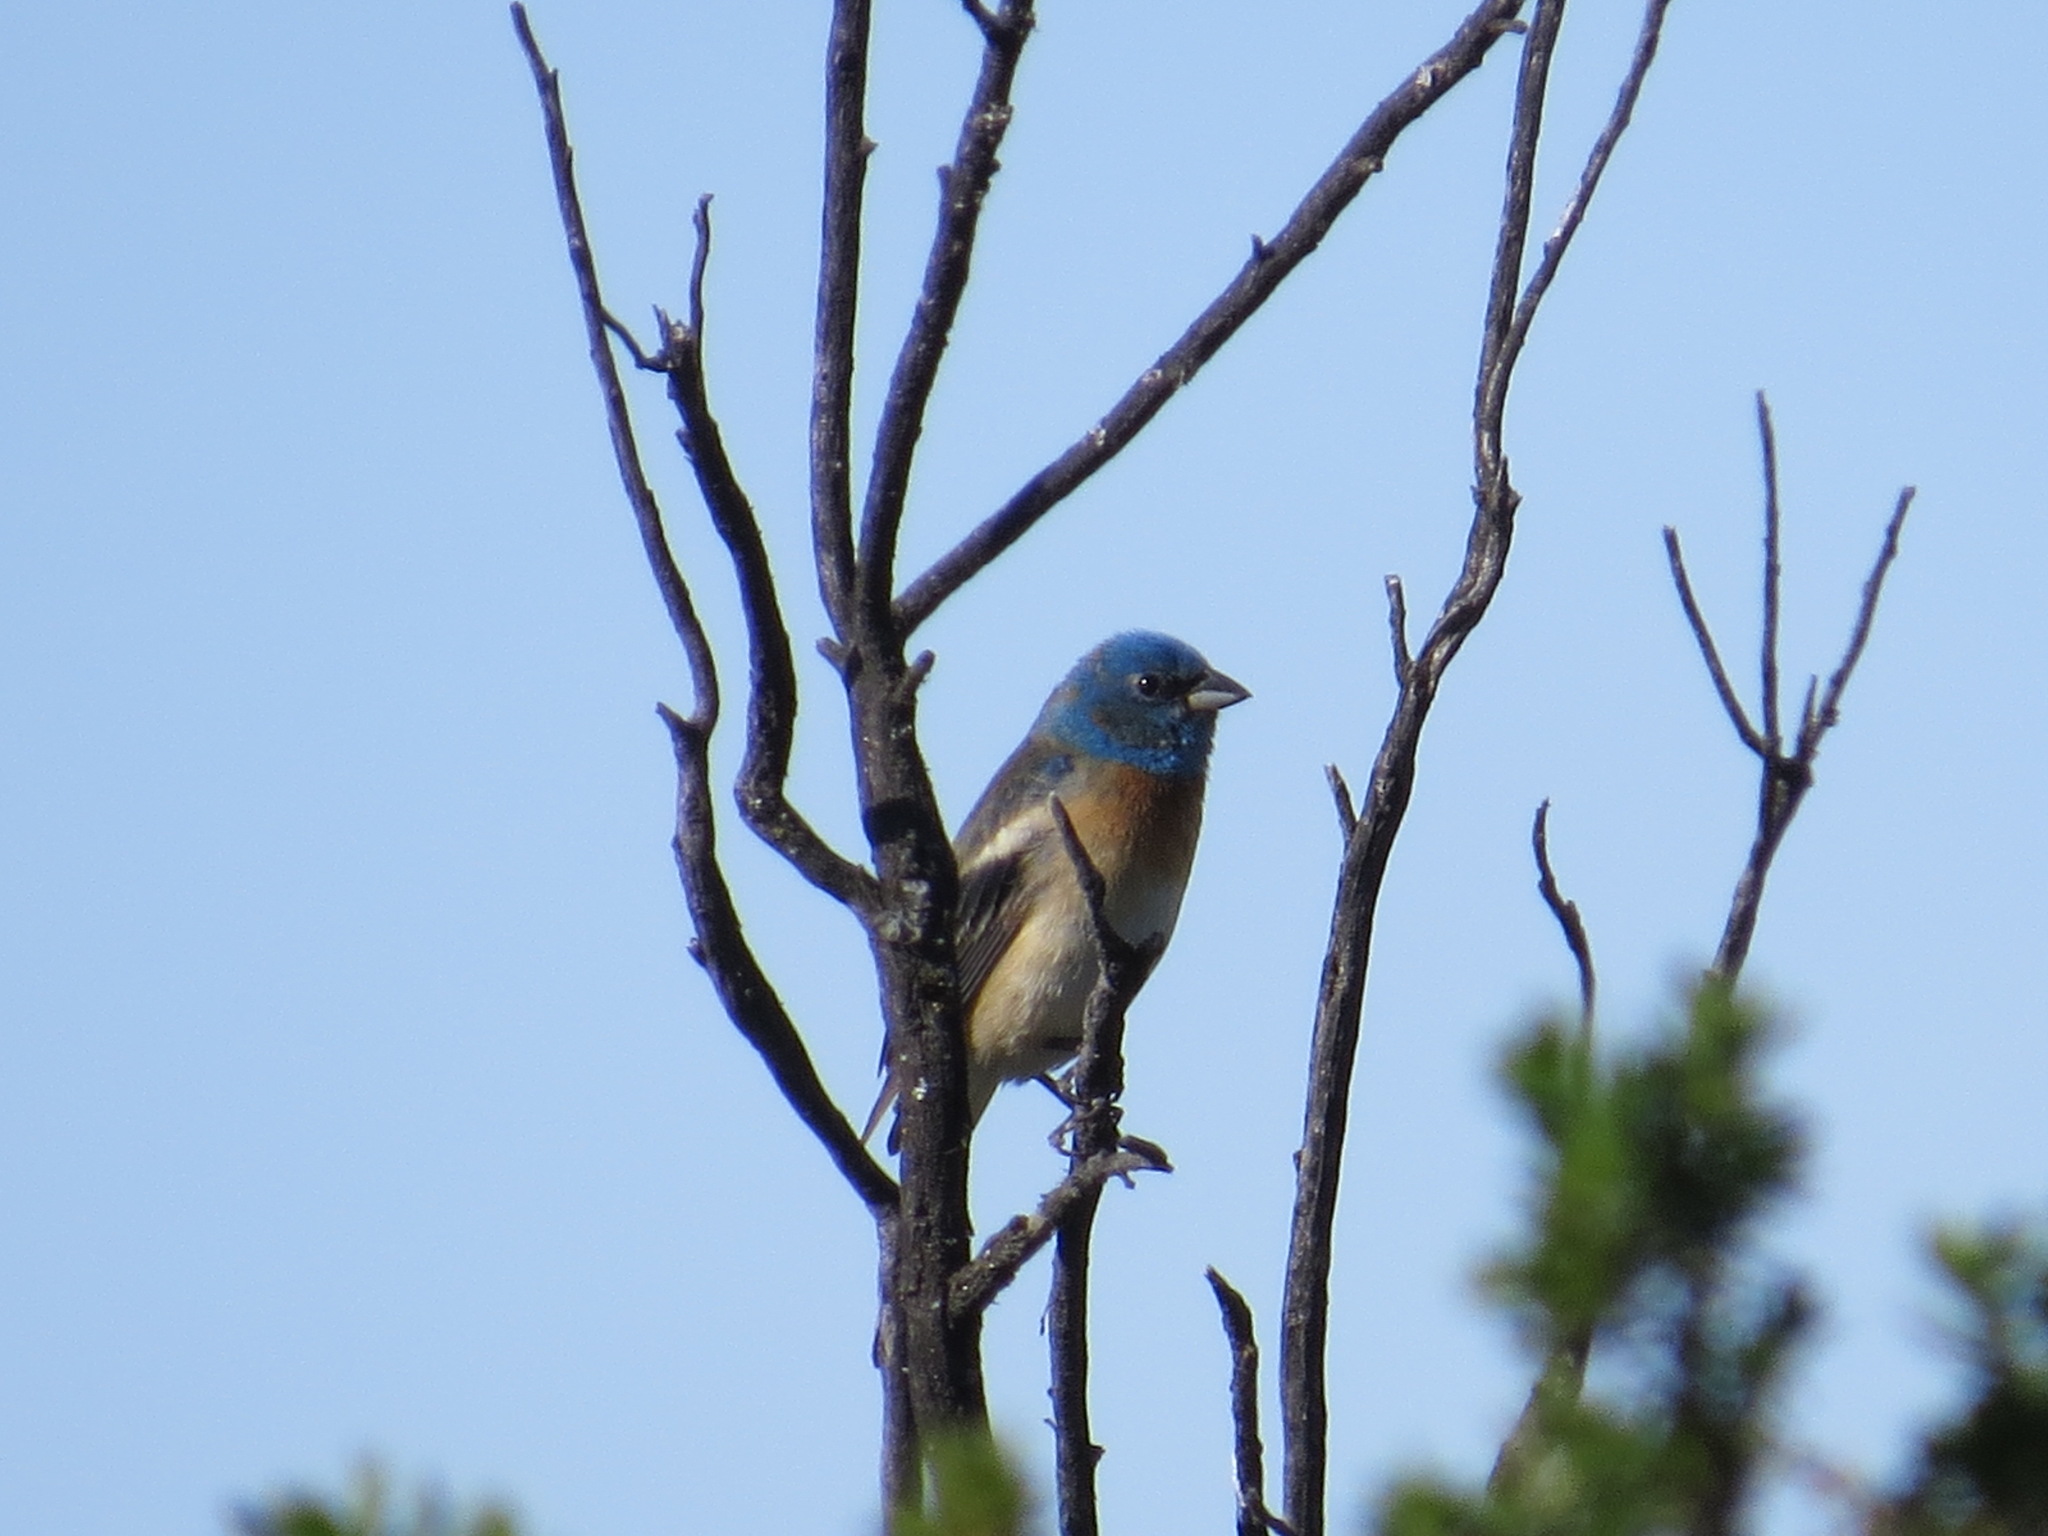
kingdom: Animalia
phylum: Chordata
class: Aves
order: Passeriformes
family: Cardinalidae
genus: Passerina
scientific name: Passerina amoena
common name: Lazuli bunting
